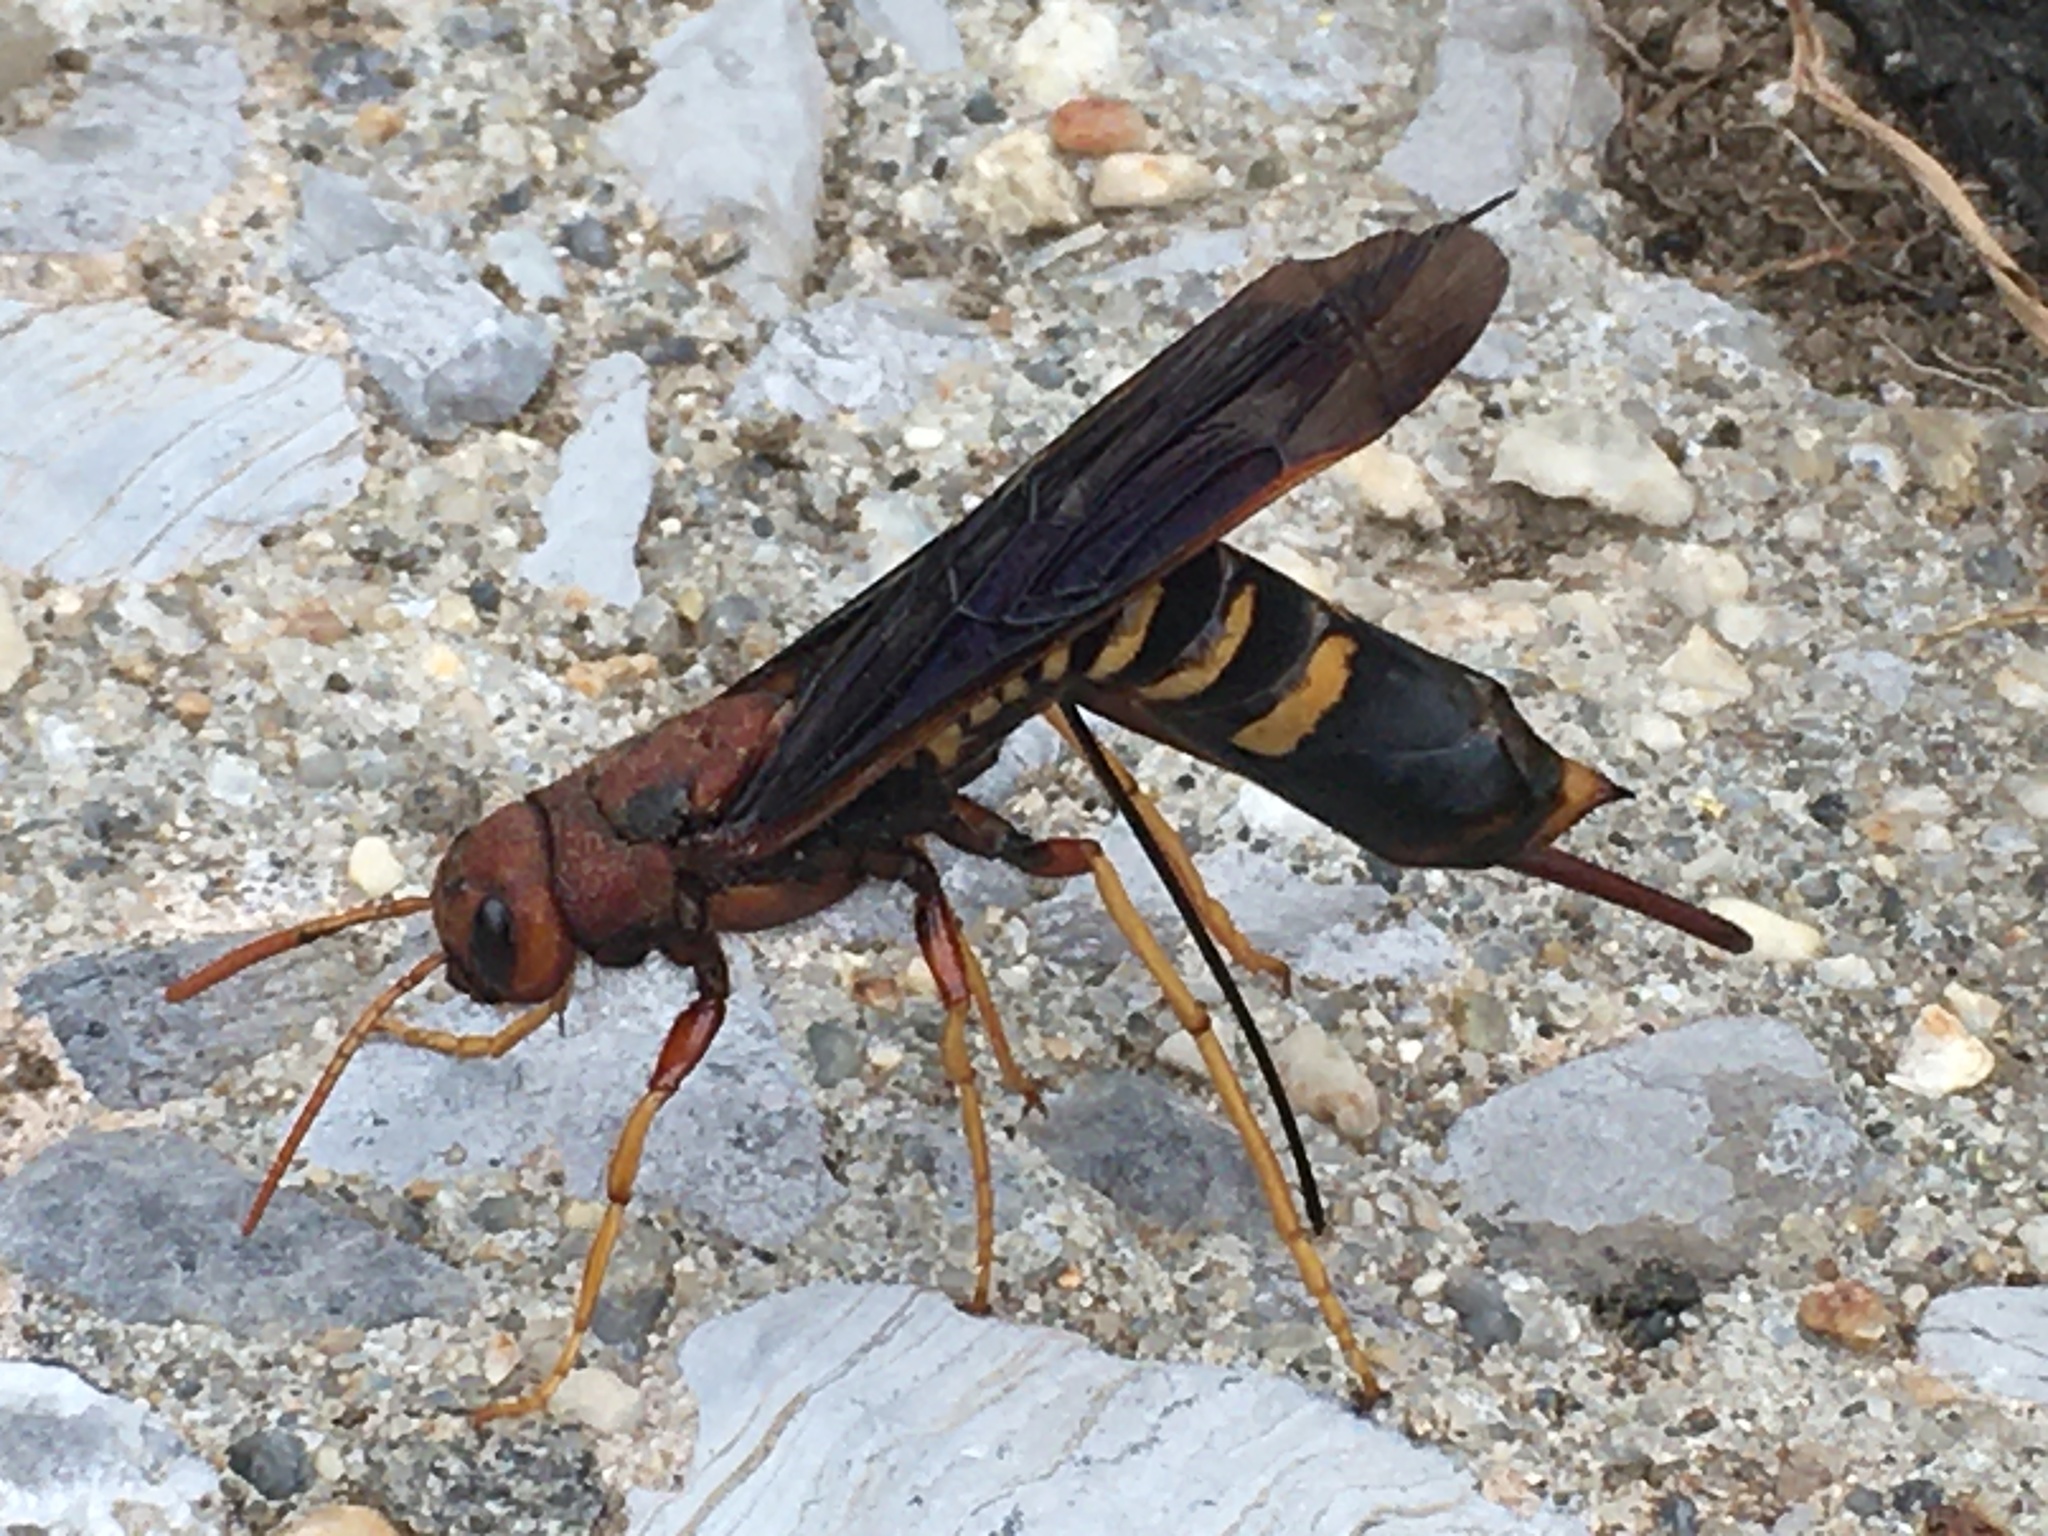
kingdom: Animalia
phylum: Arthropoda
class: Insecta
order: Hymenoptera
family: Siricidae
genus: Tremex
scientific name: Tremex columba
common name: Wasp
